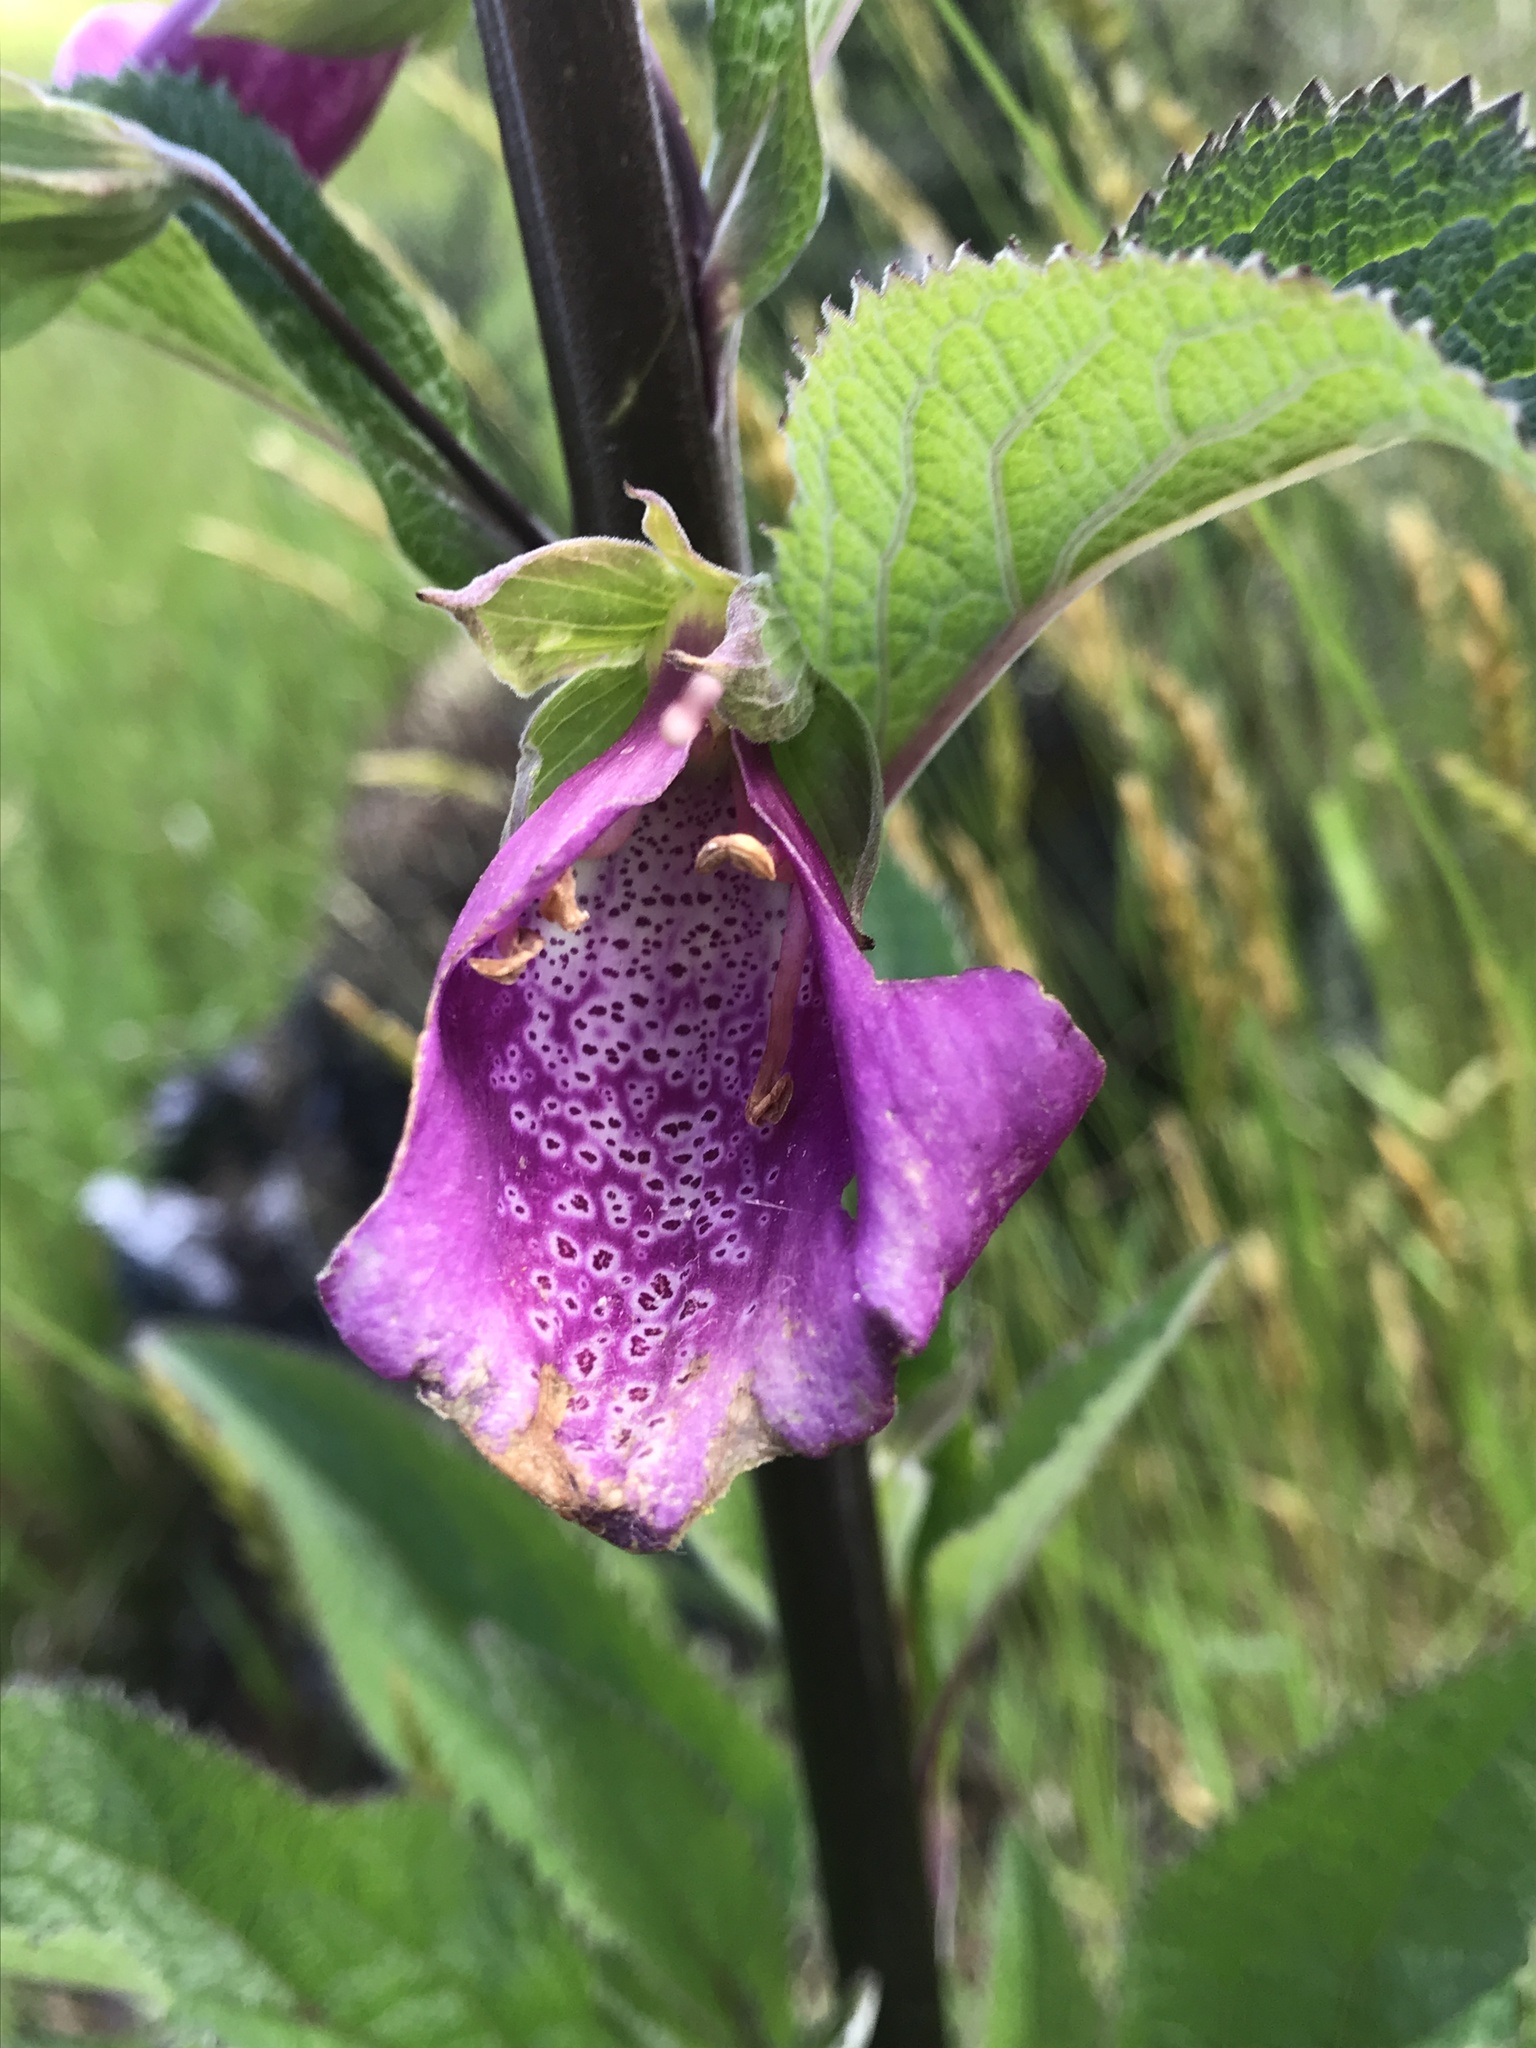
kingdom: Plantae
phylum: Tracheophyta
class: Magnoliopsida
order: Lamiales
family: Plantaginaceae
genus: Digitalis
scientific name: Digitalis purpurea
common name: Foxglove
